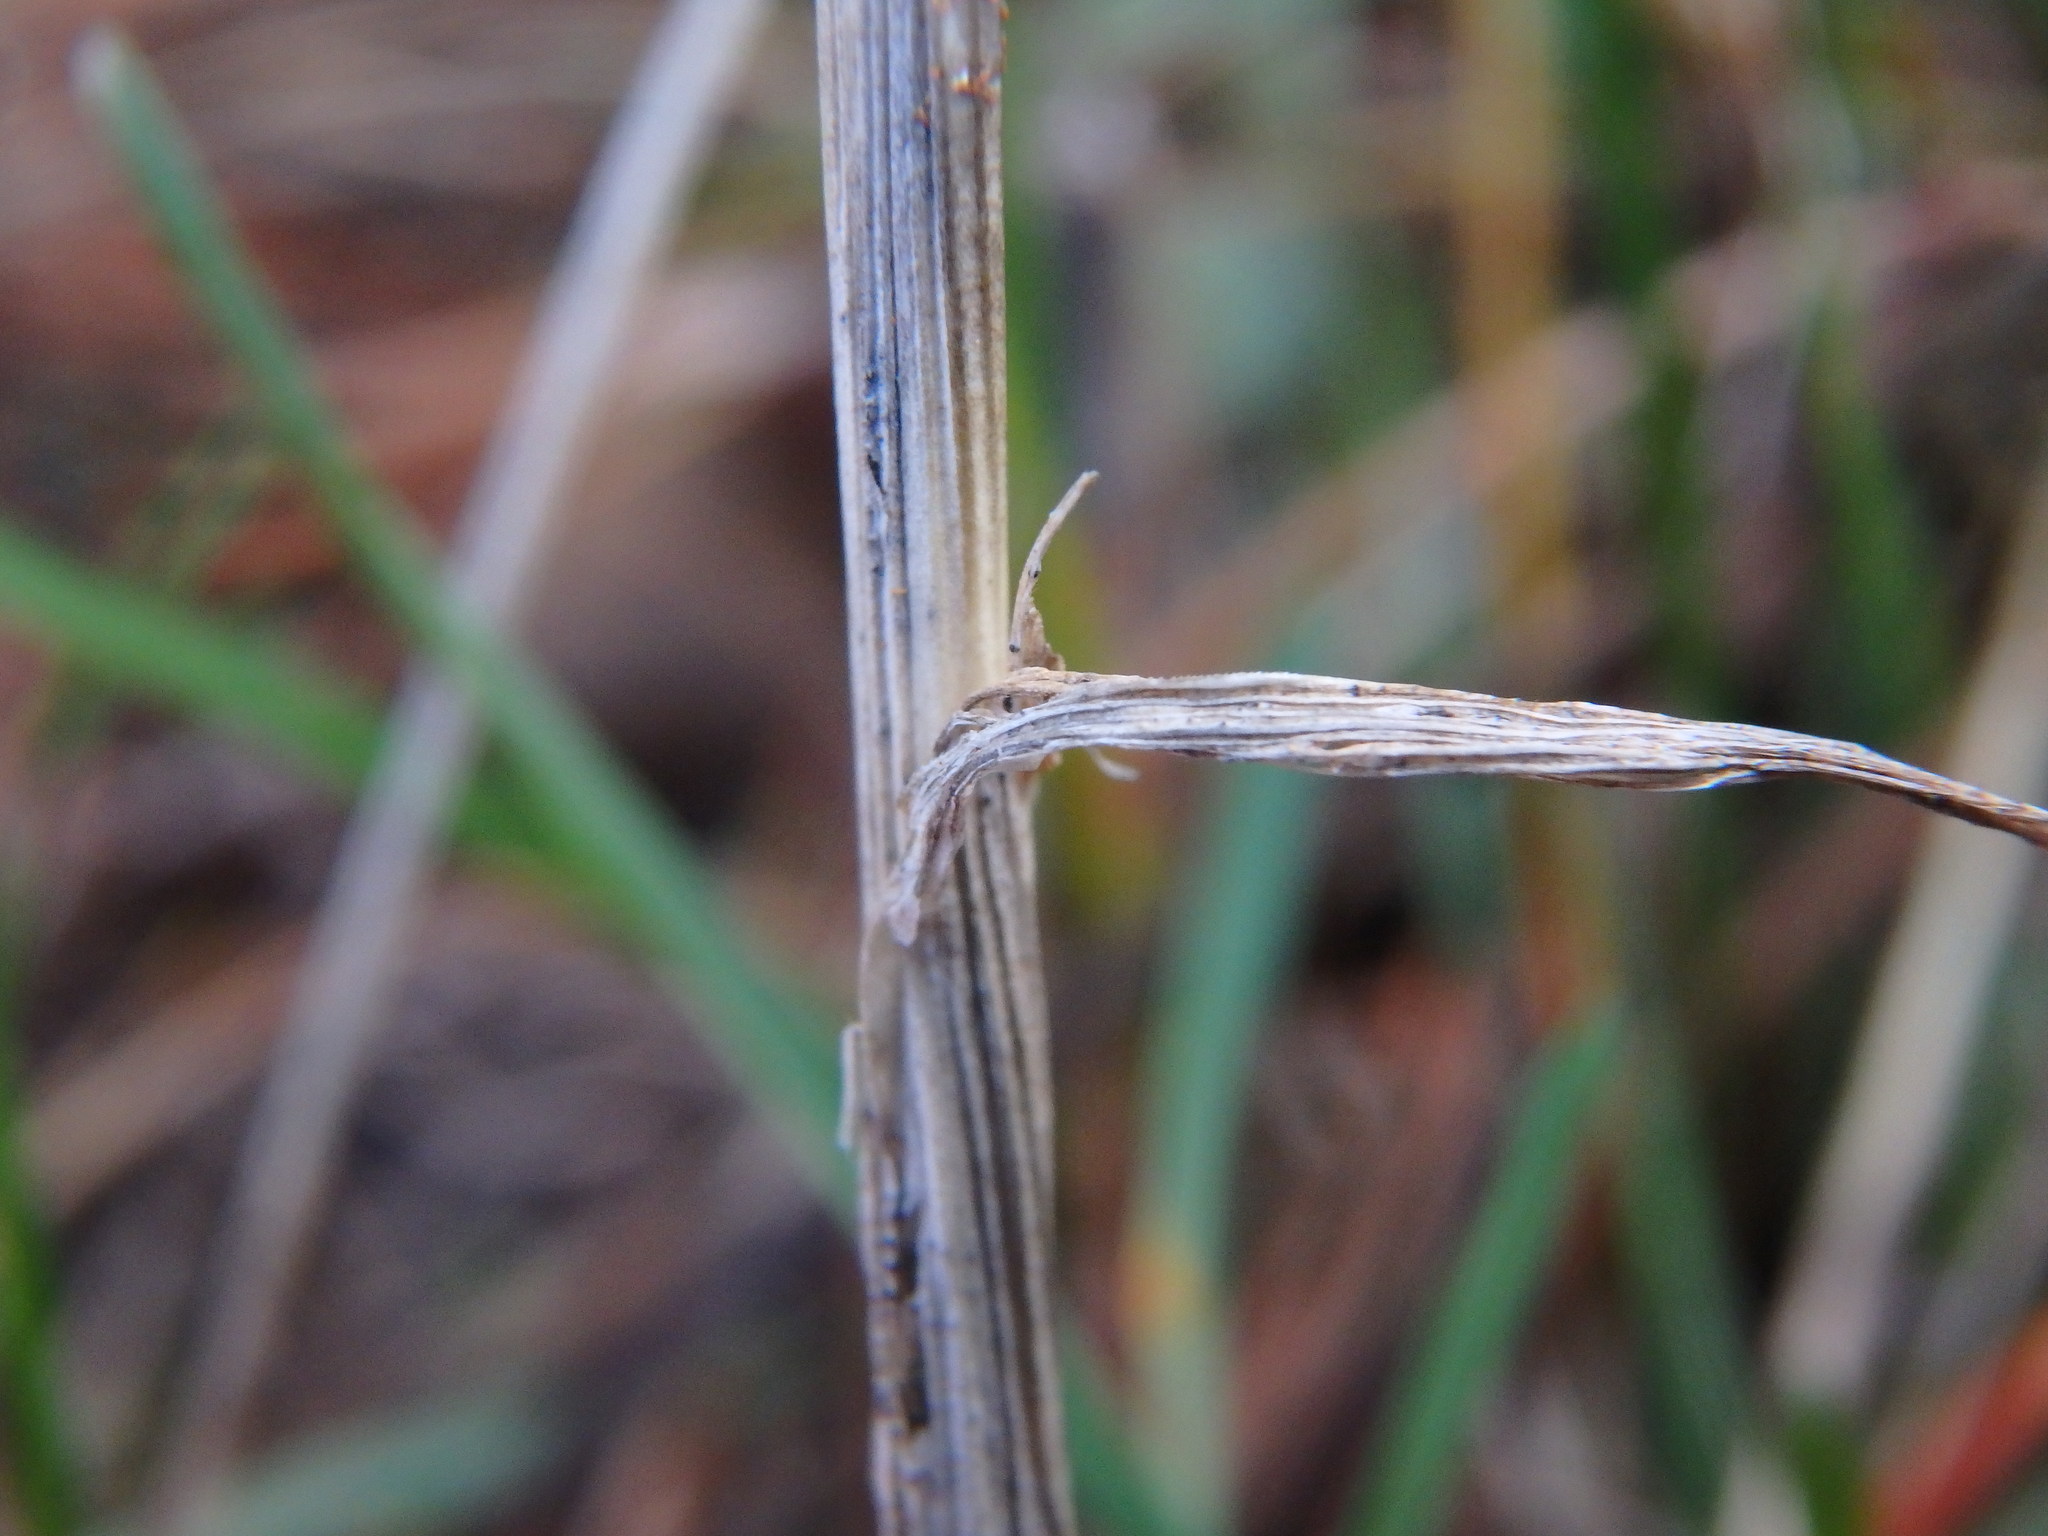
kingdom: Plantae
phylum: Tracheophyta
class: Liliopsida
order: Poales
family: Poaceae
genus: Poa
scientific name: Poa bulbosa
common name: Bulbous bluegrass
